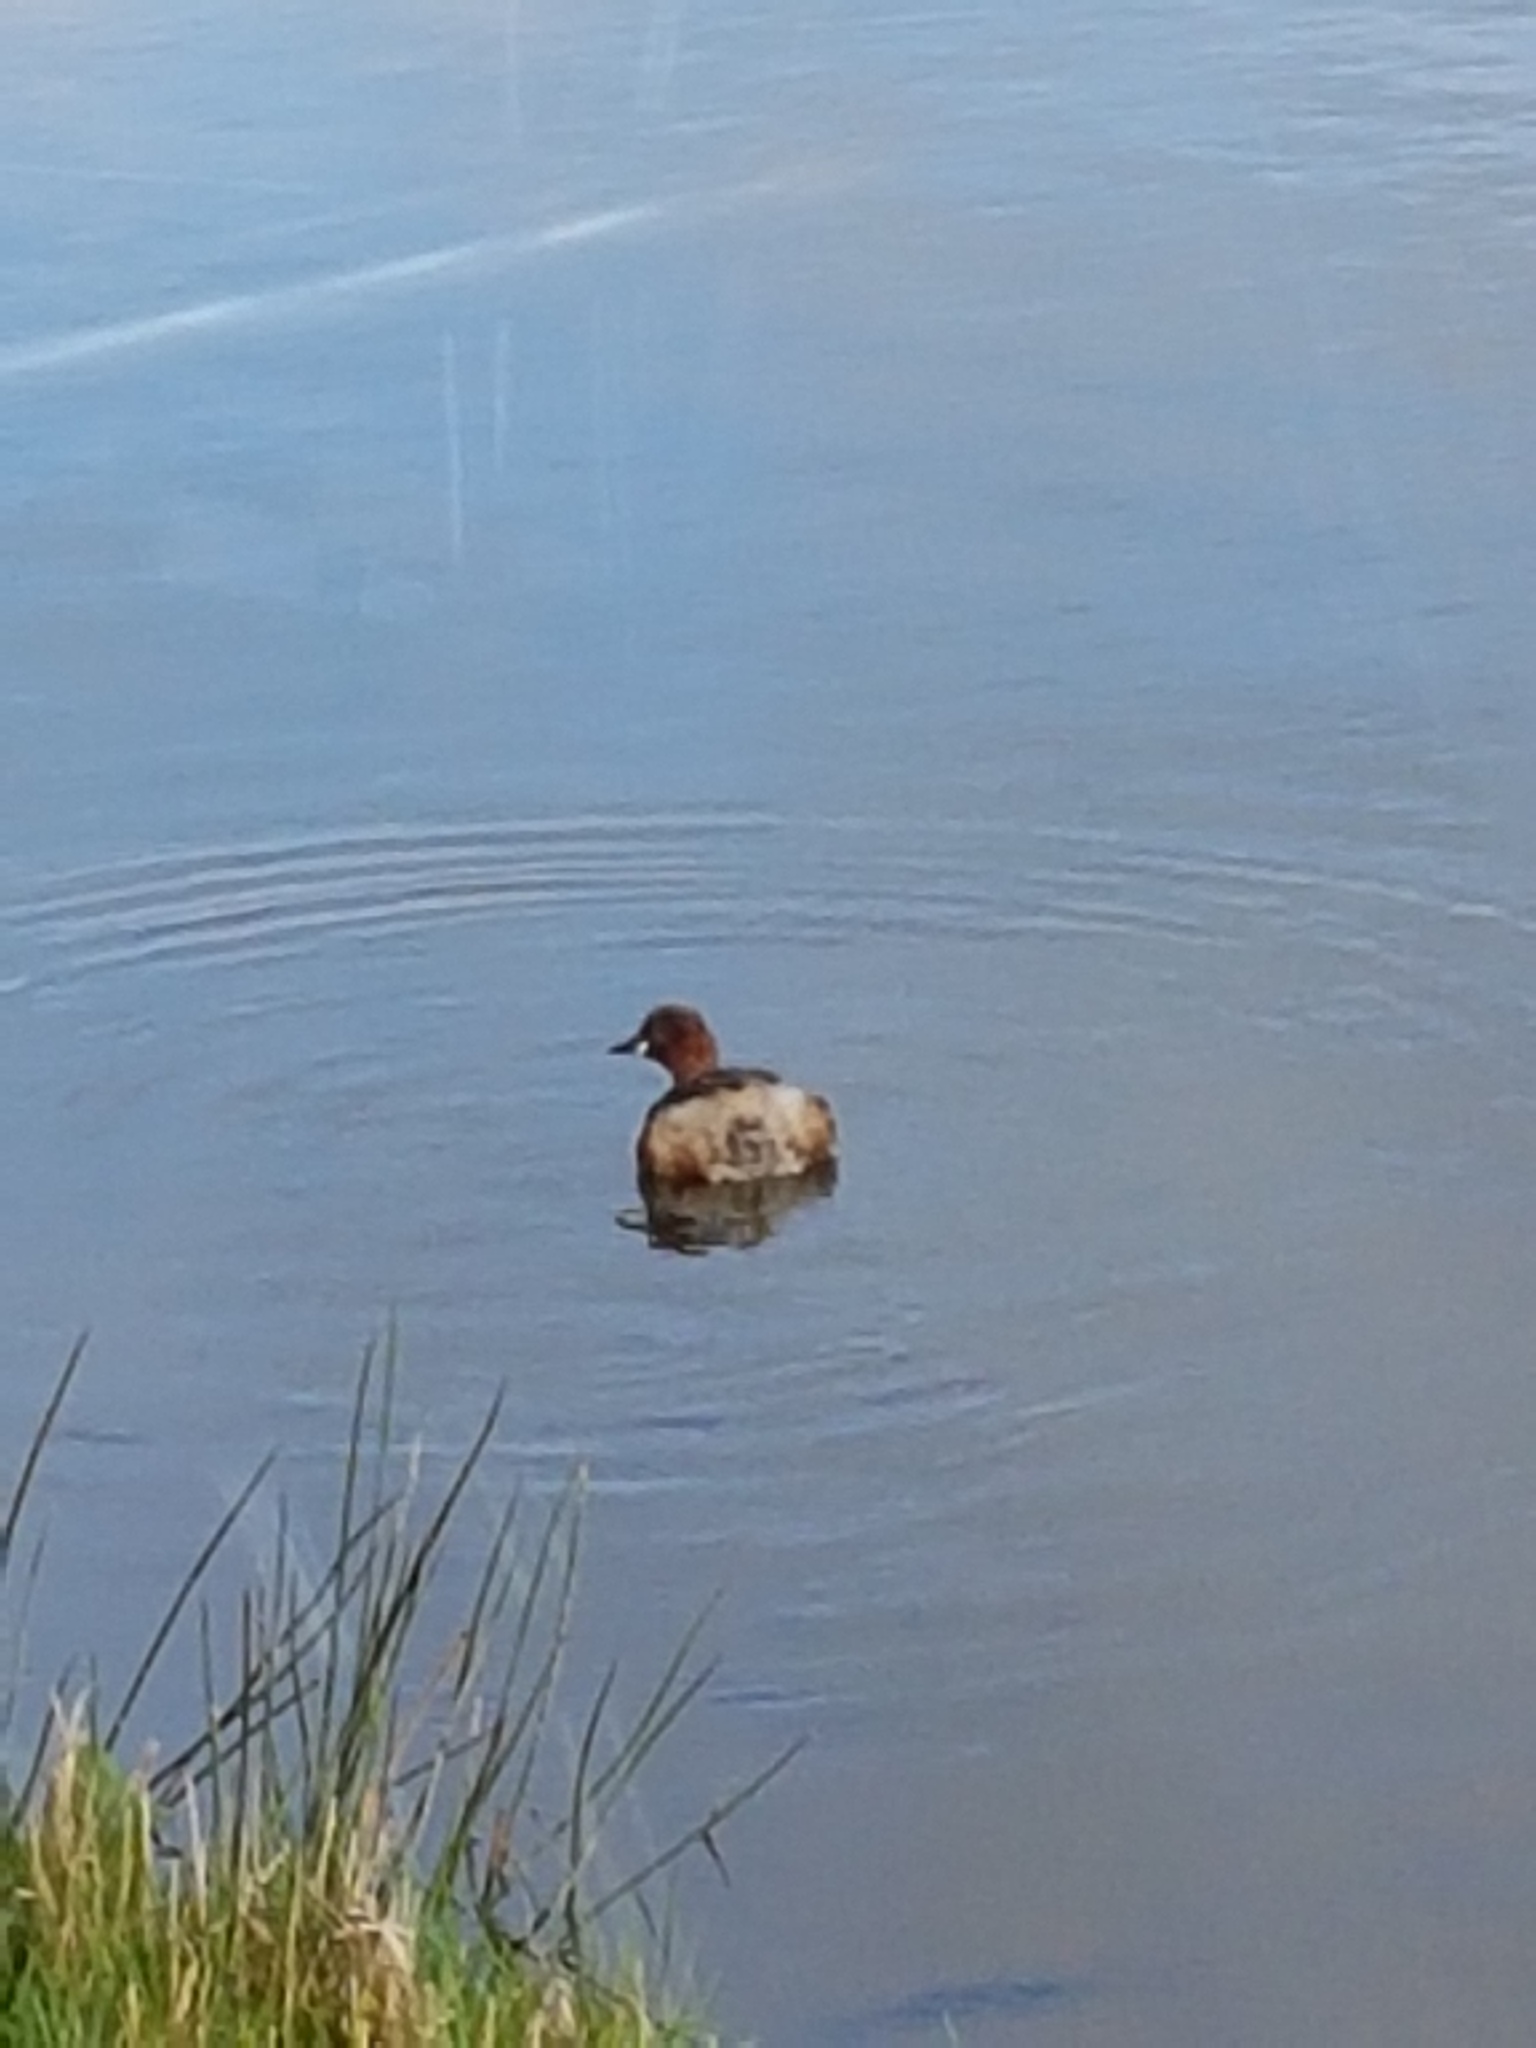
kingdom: Animalia
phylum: Chordata
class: Aves
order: Podicipediformes
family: Podicipedidae
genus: Tachybaptus
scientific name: Tachybaptus ruficollis
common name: Little grebe
